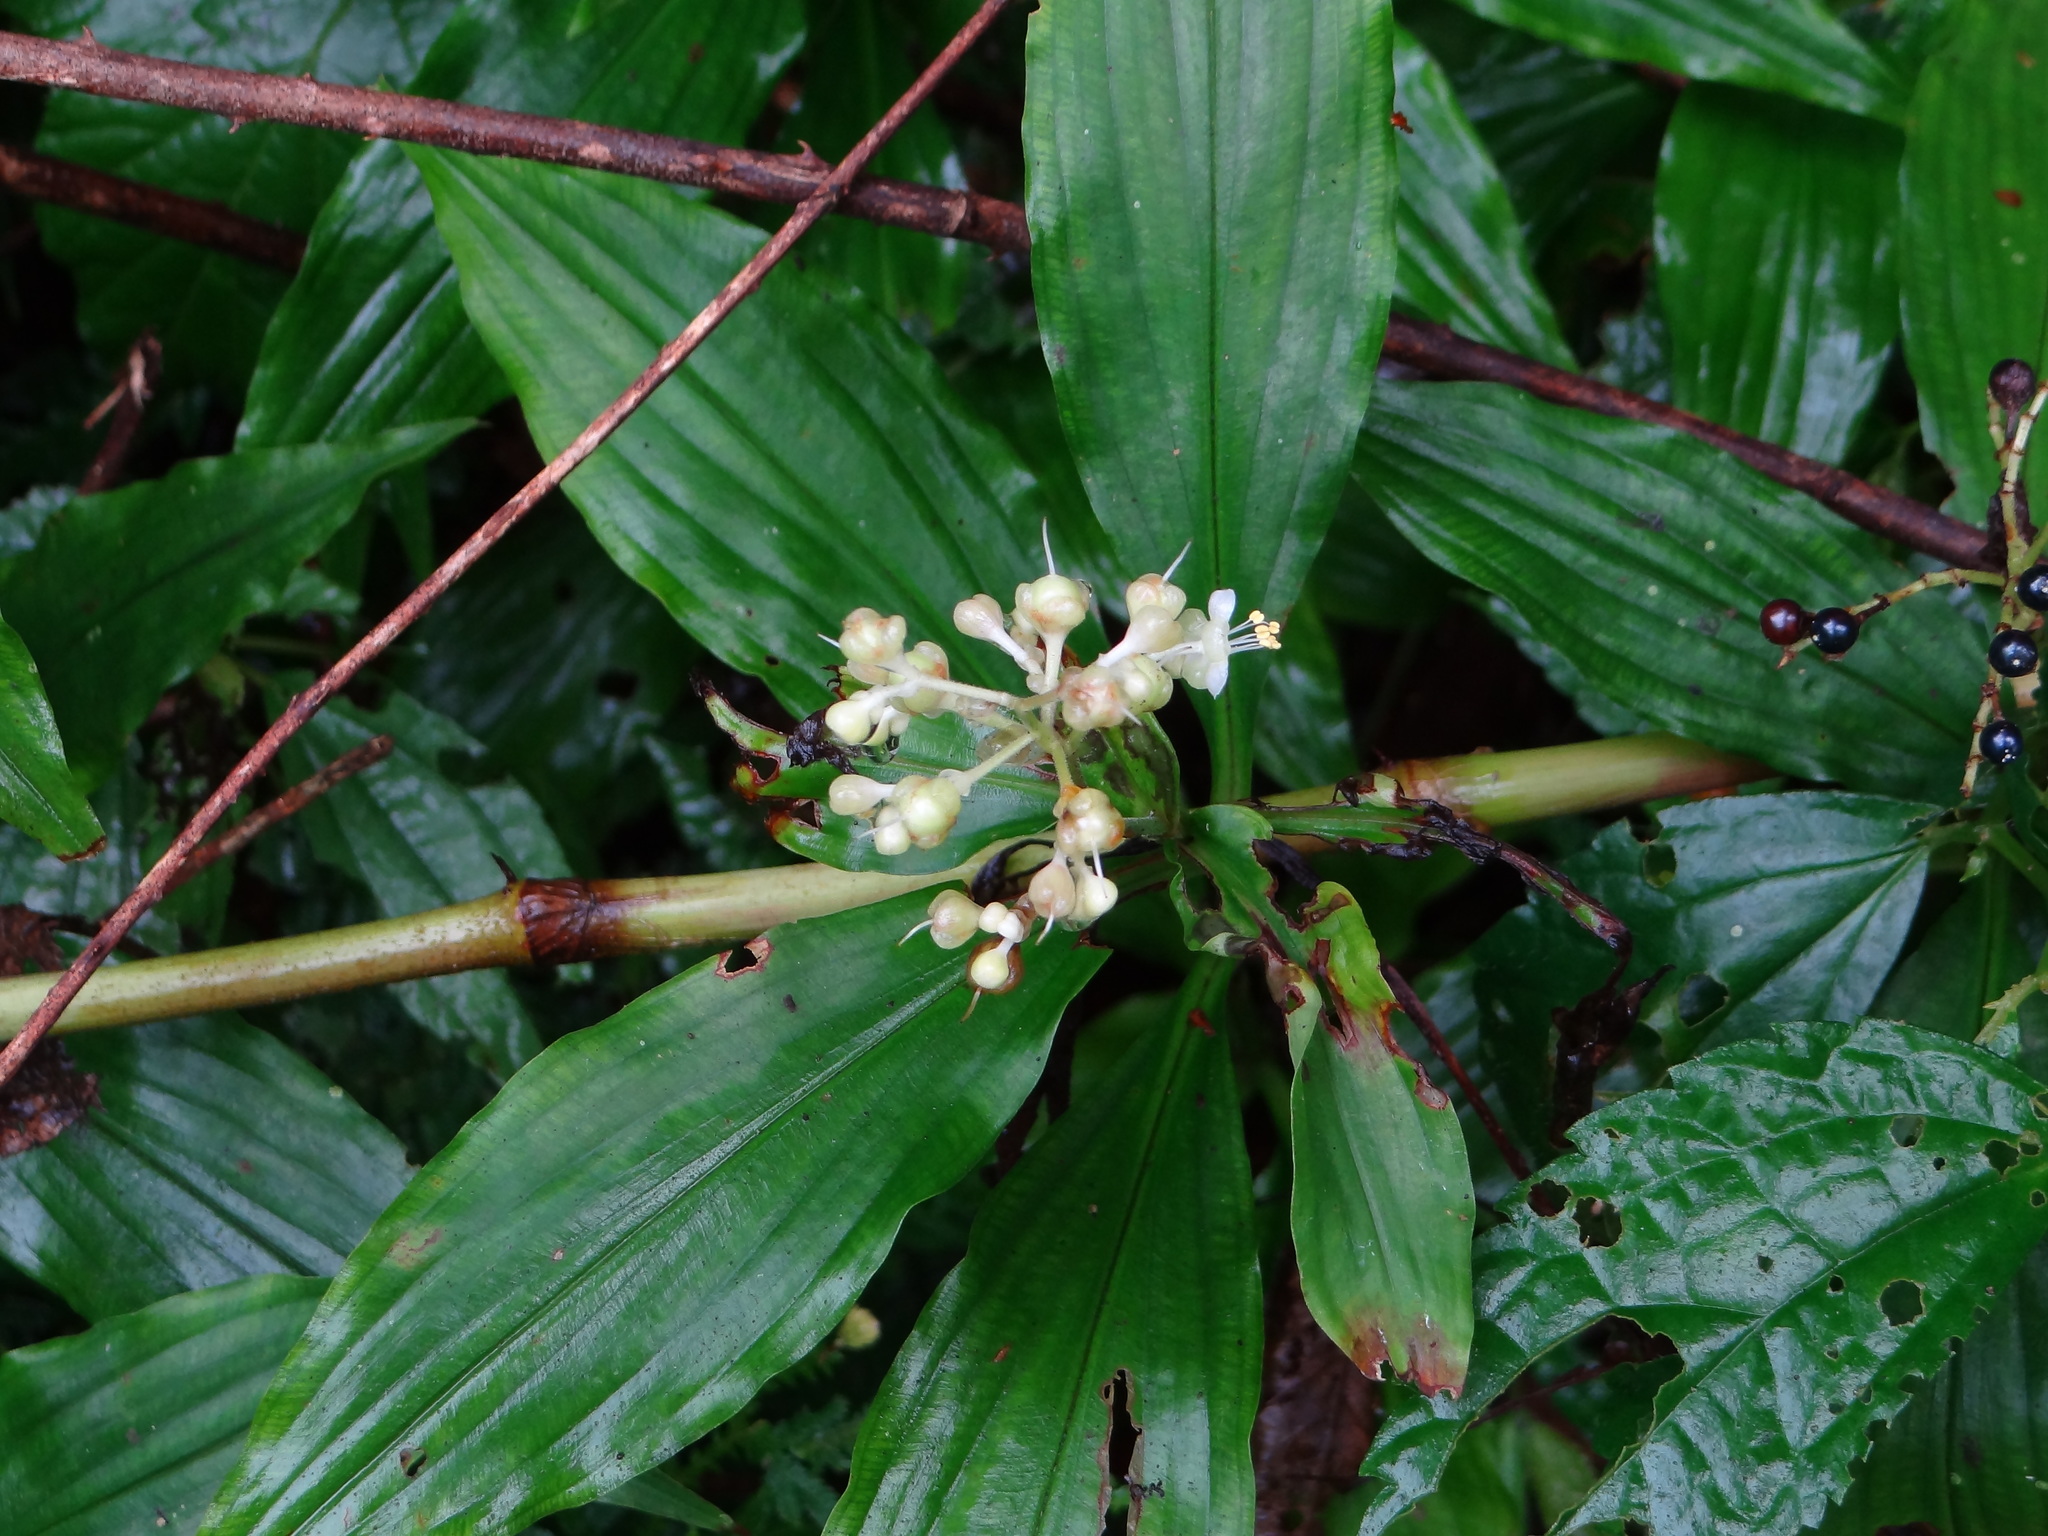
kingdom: Plantae
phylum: Tracheophyta
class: Liliopsida
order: Commelinales
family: Commelinaceae
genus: Pollia
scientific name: Pollia miranda
